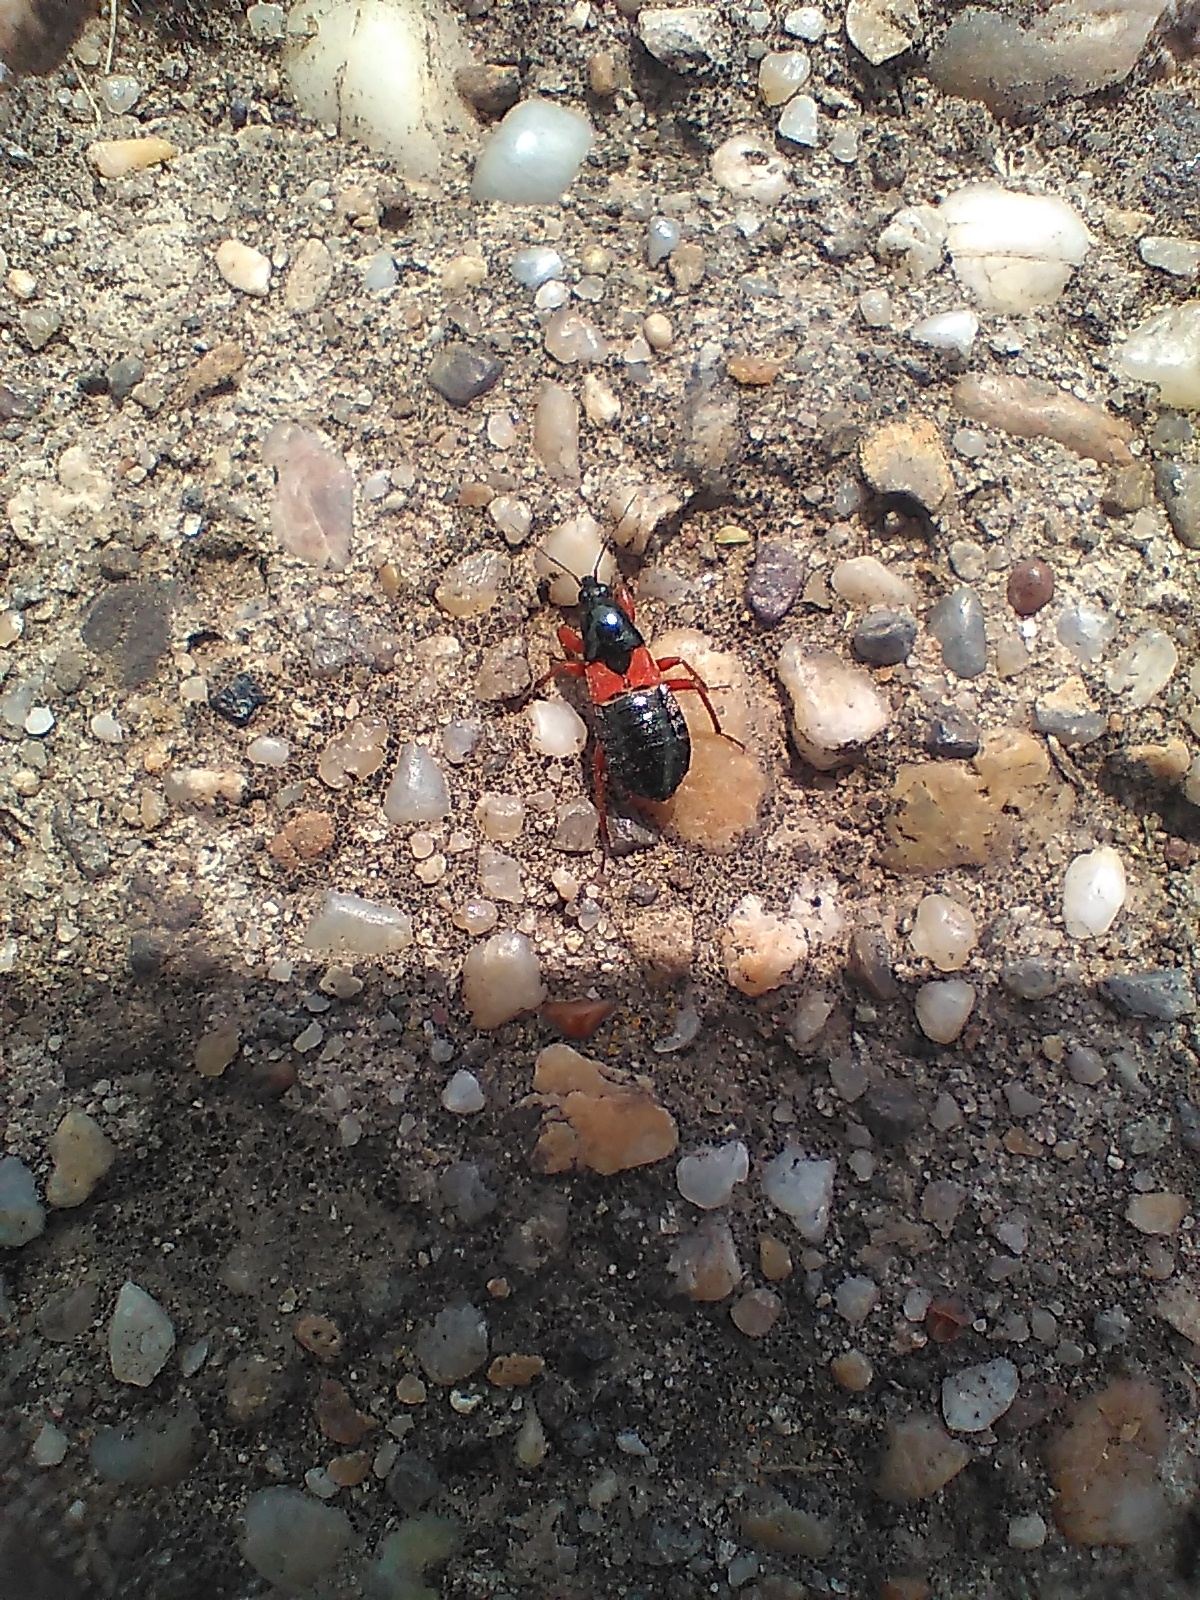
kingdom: Animalia
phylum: Arthropoda
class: Insecta
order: Hemiptera
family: Nabidae
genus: Prostemma
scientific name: Prostemma guttula
